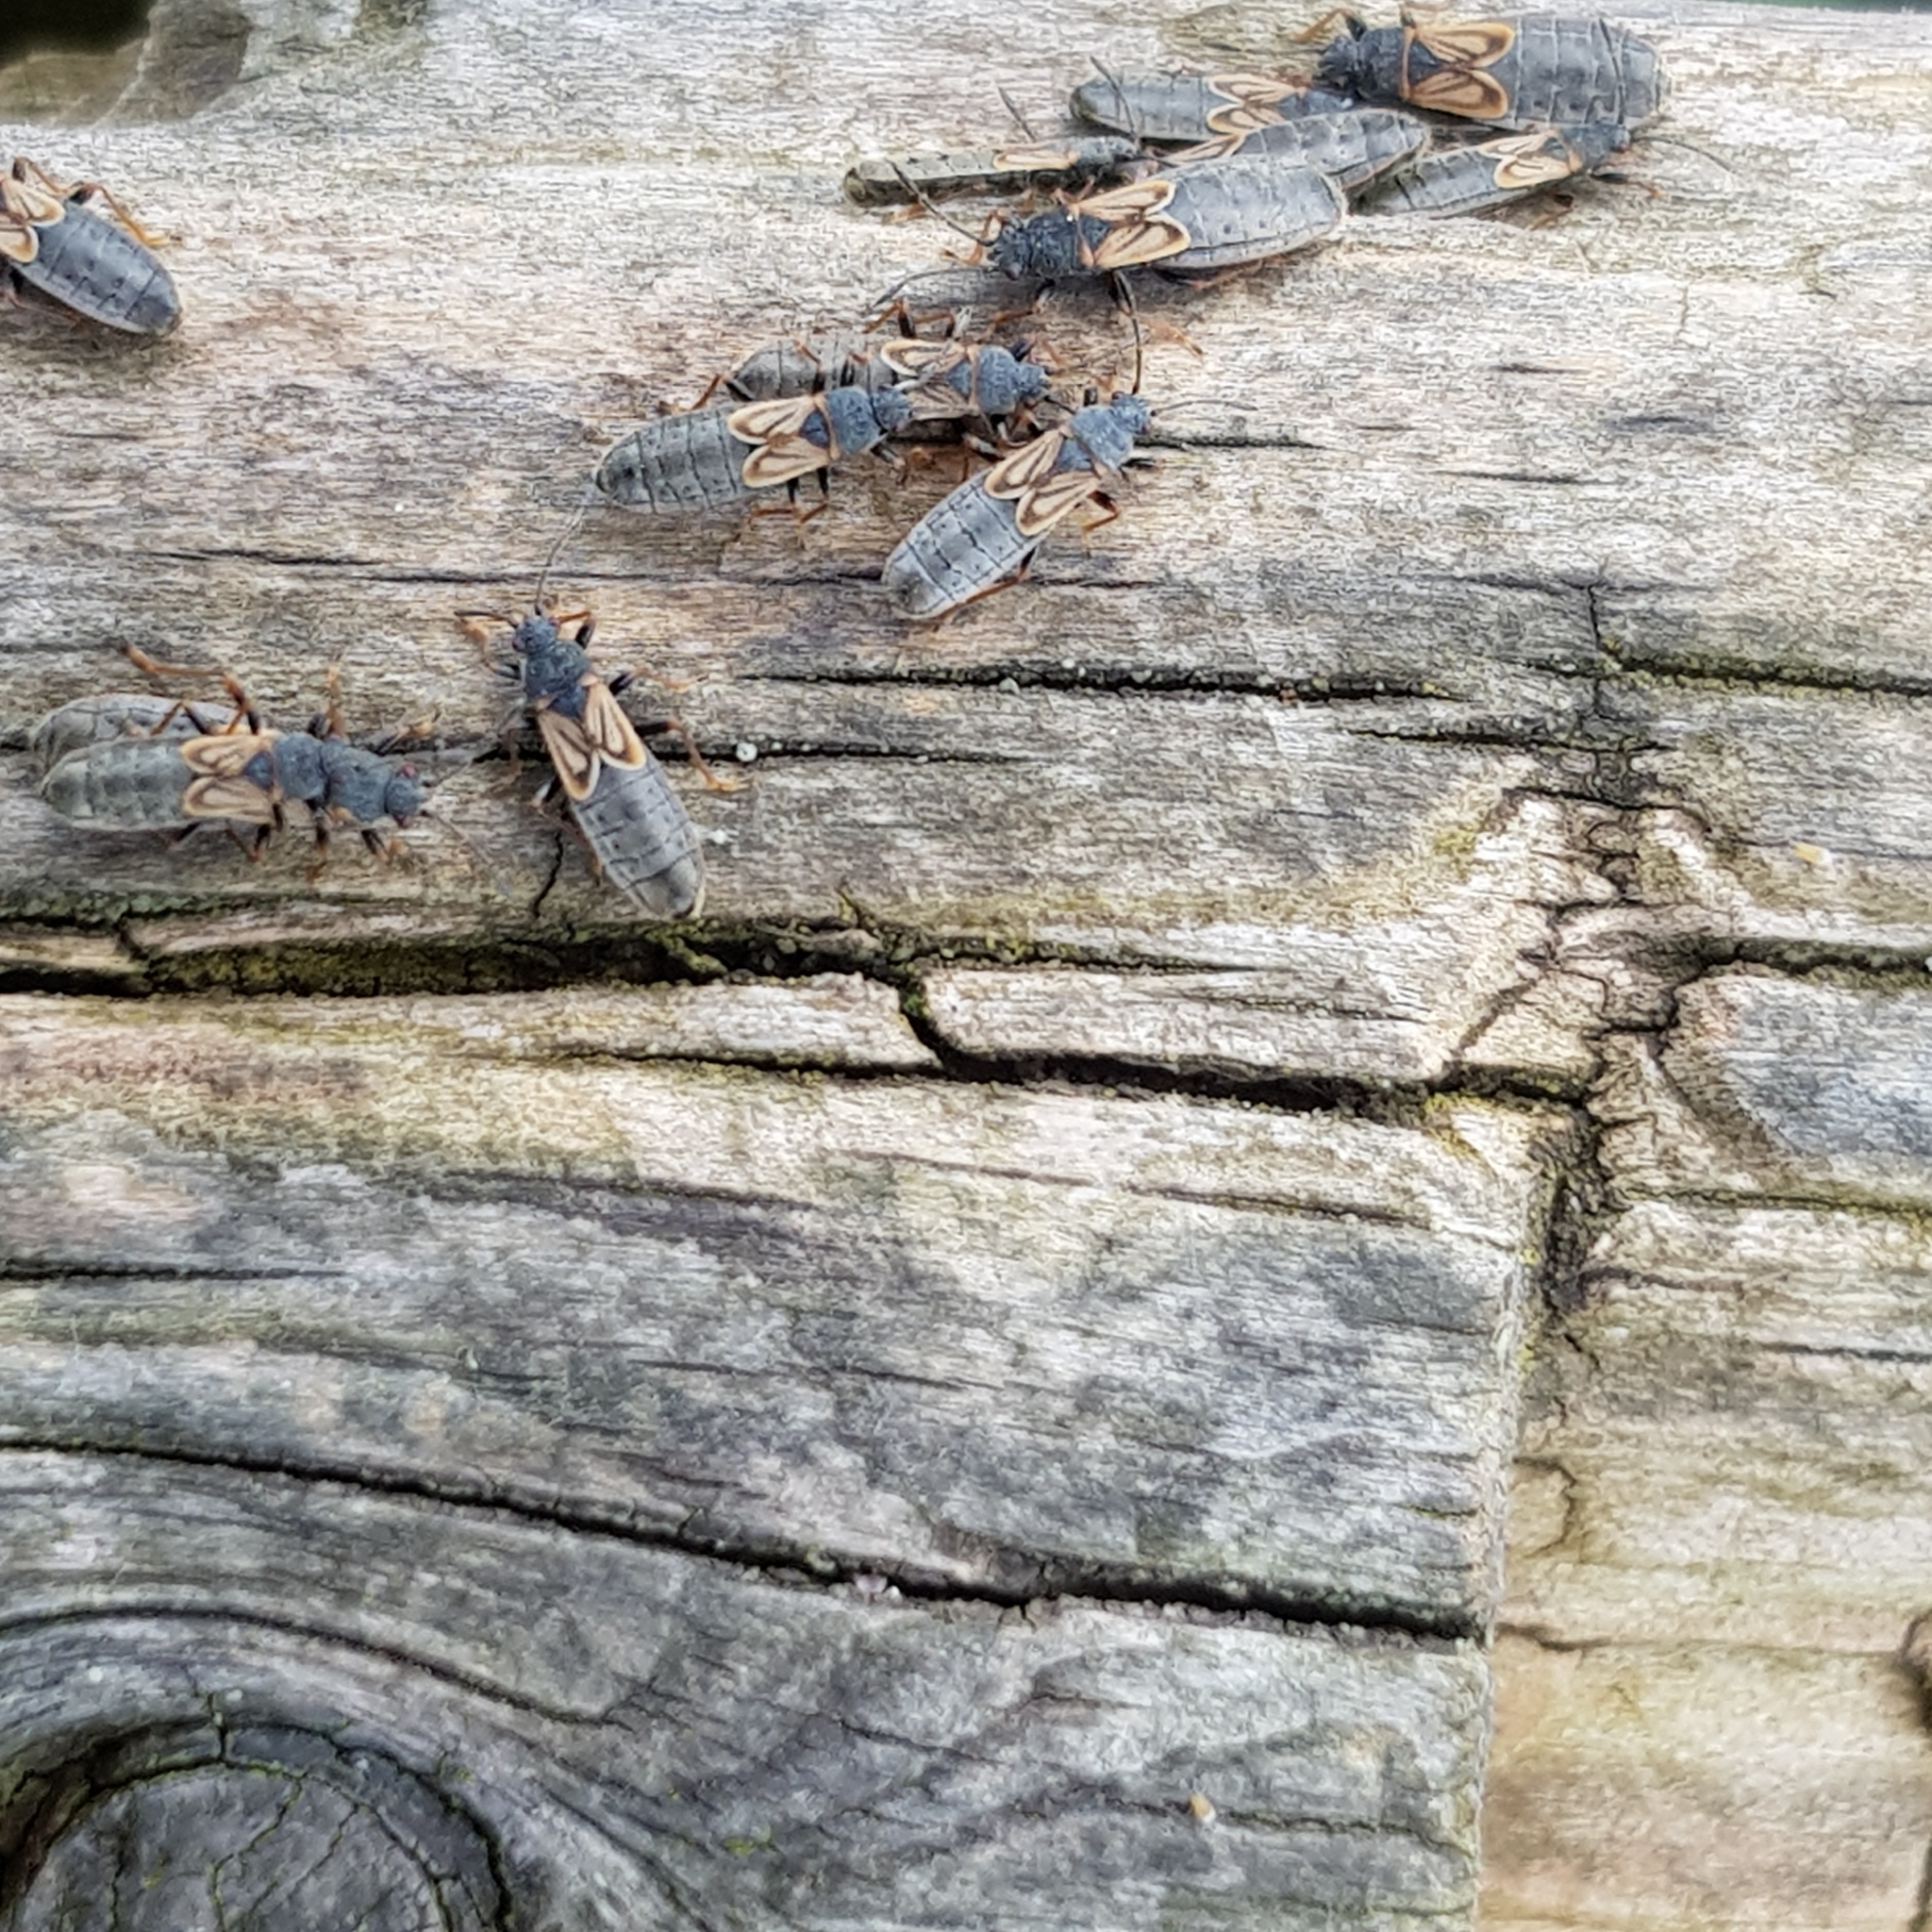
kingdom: Animalia
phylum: Arthropoda
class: Insecta
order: Hemiptera
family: Blissidae
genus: Ischnodemus
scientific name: Ischnodemus sabuleti
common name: European cinchbug
